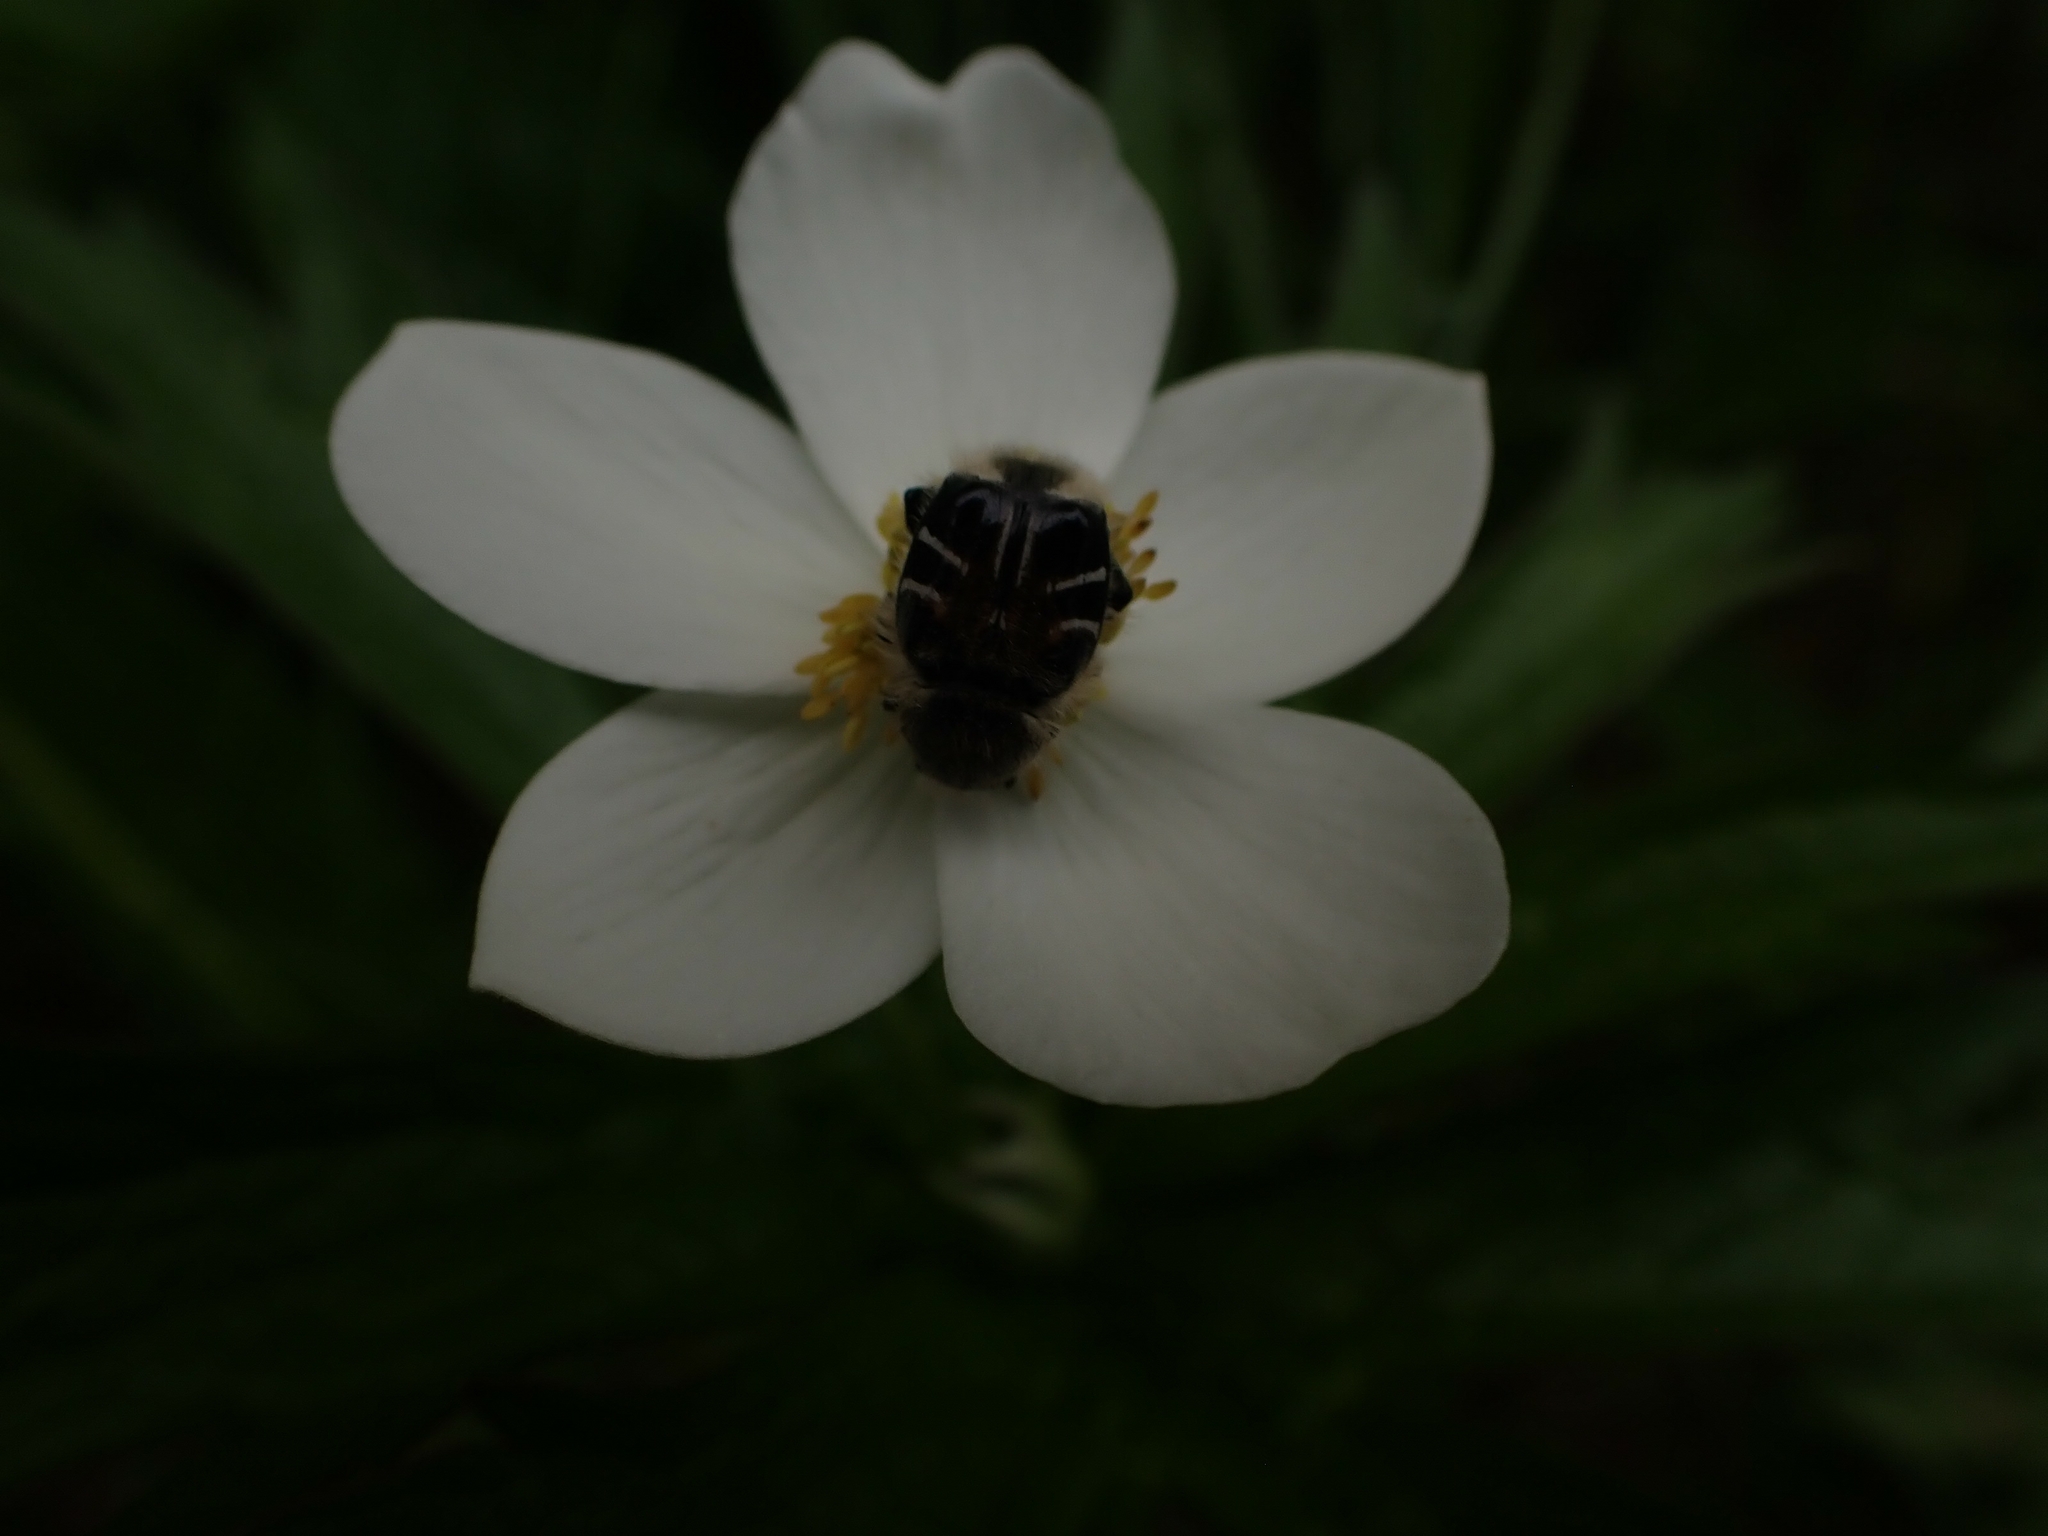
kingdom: Plantae
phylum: Tracheophyta
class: Magnoliopsida
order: Ranunculales
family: Ranunculaceae
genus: Anemonastrum
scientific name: Anemonastrum canadense
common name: Canada anemone
